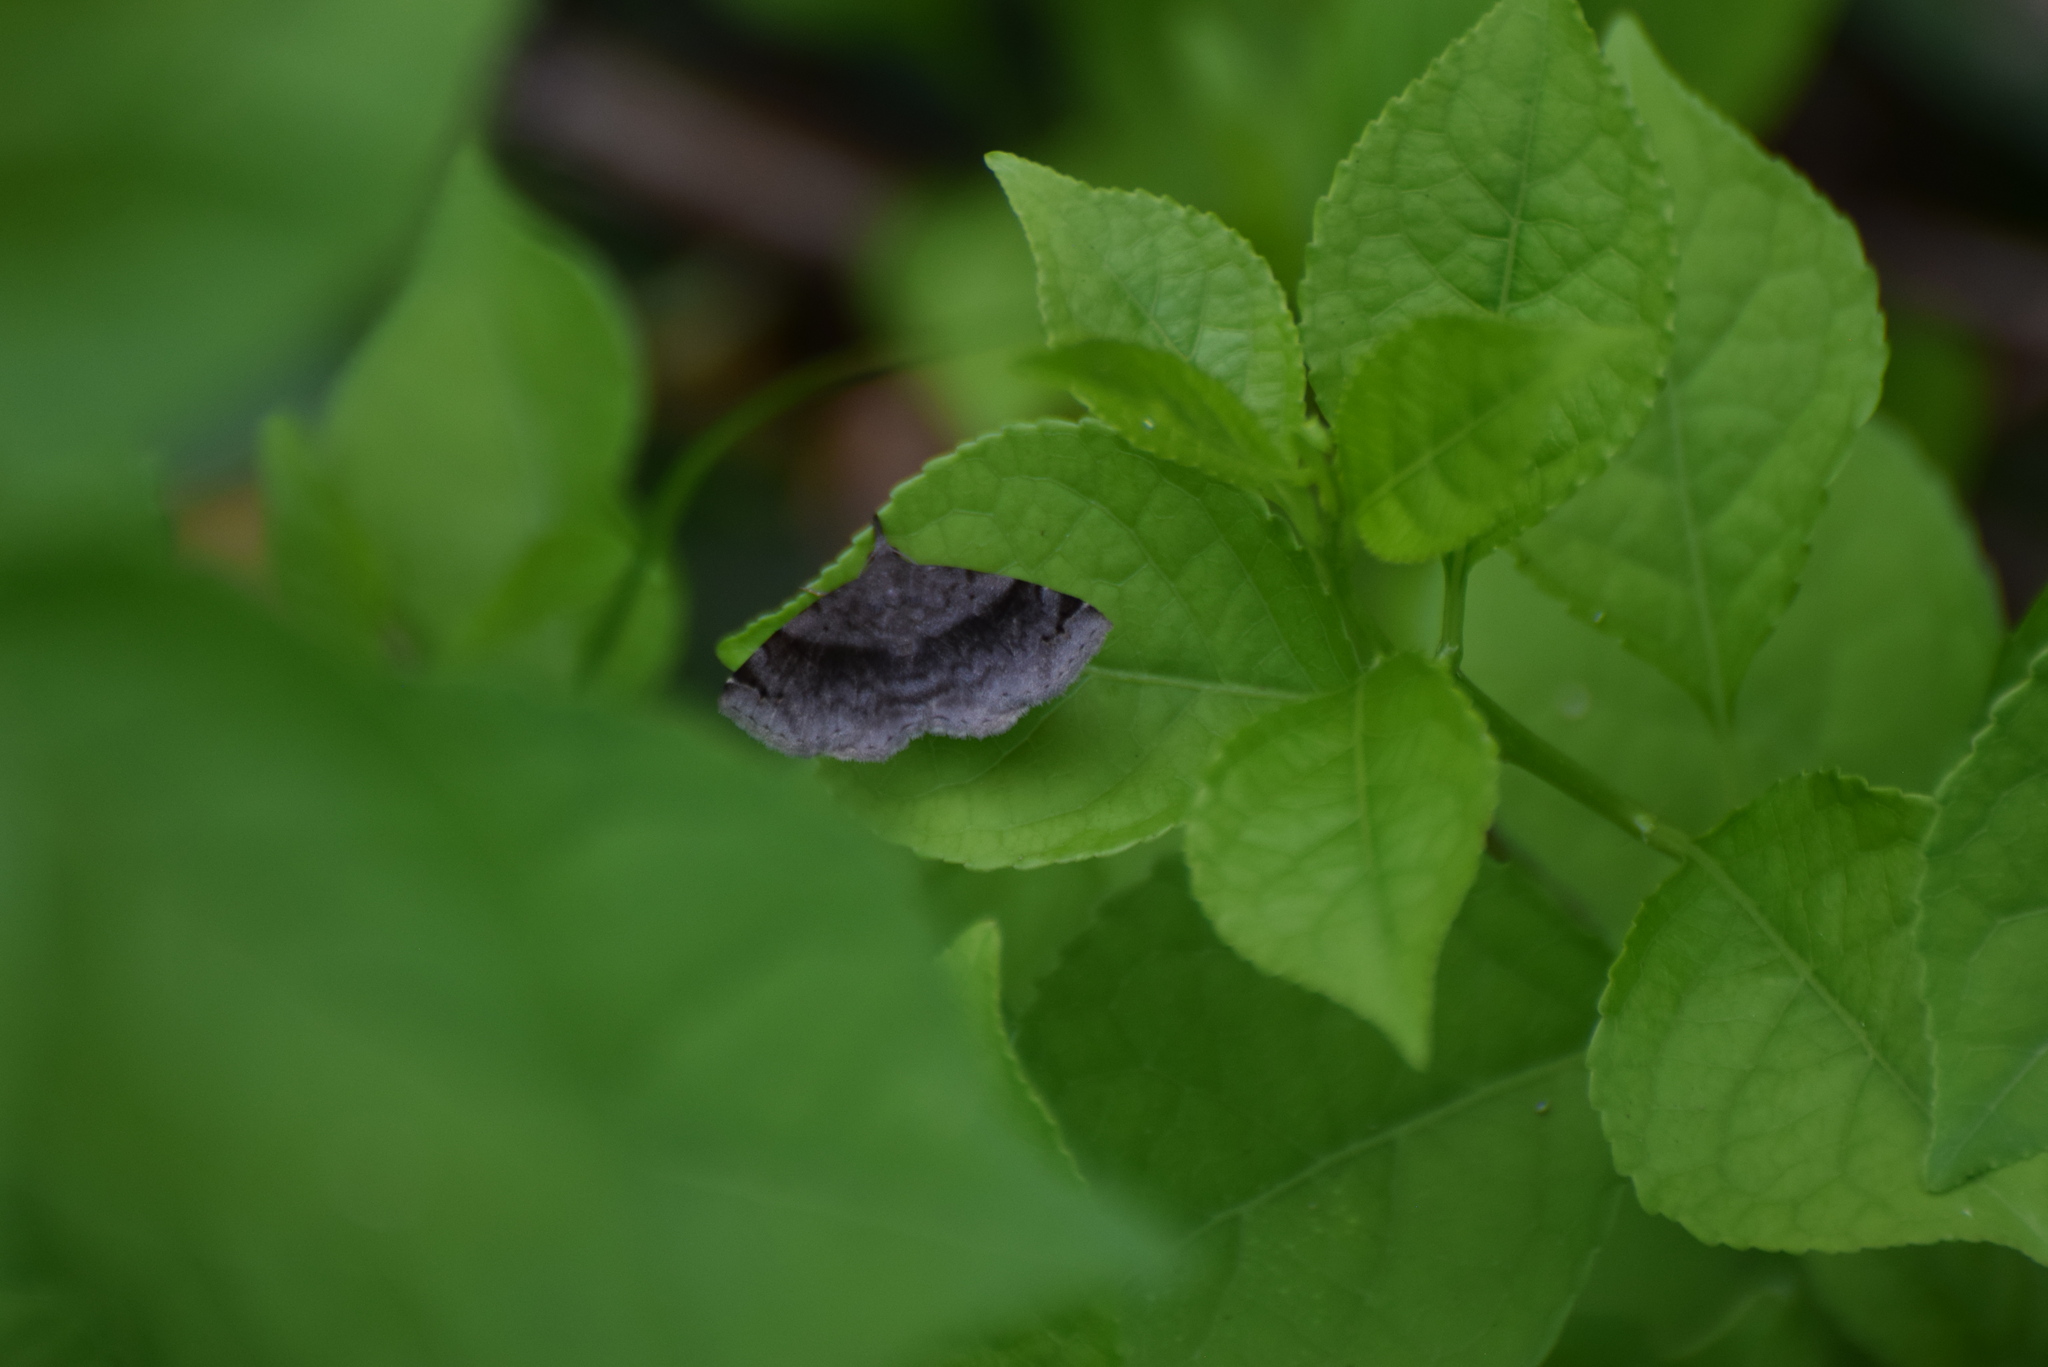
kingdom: Animalia
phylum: Arthropoda
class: Insecta
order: Lepidoptera
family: Erebidae
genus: Spargaloma
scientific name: Spargaloma sexpunctata
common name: Six-spotted gray
